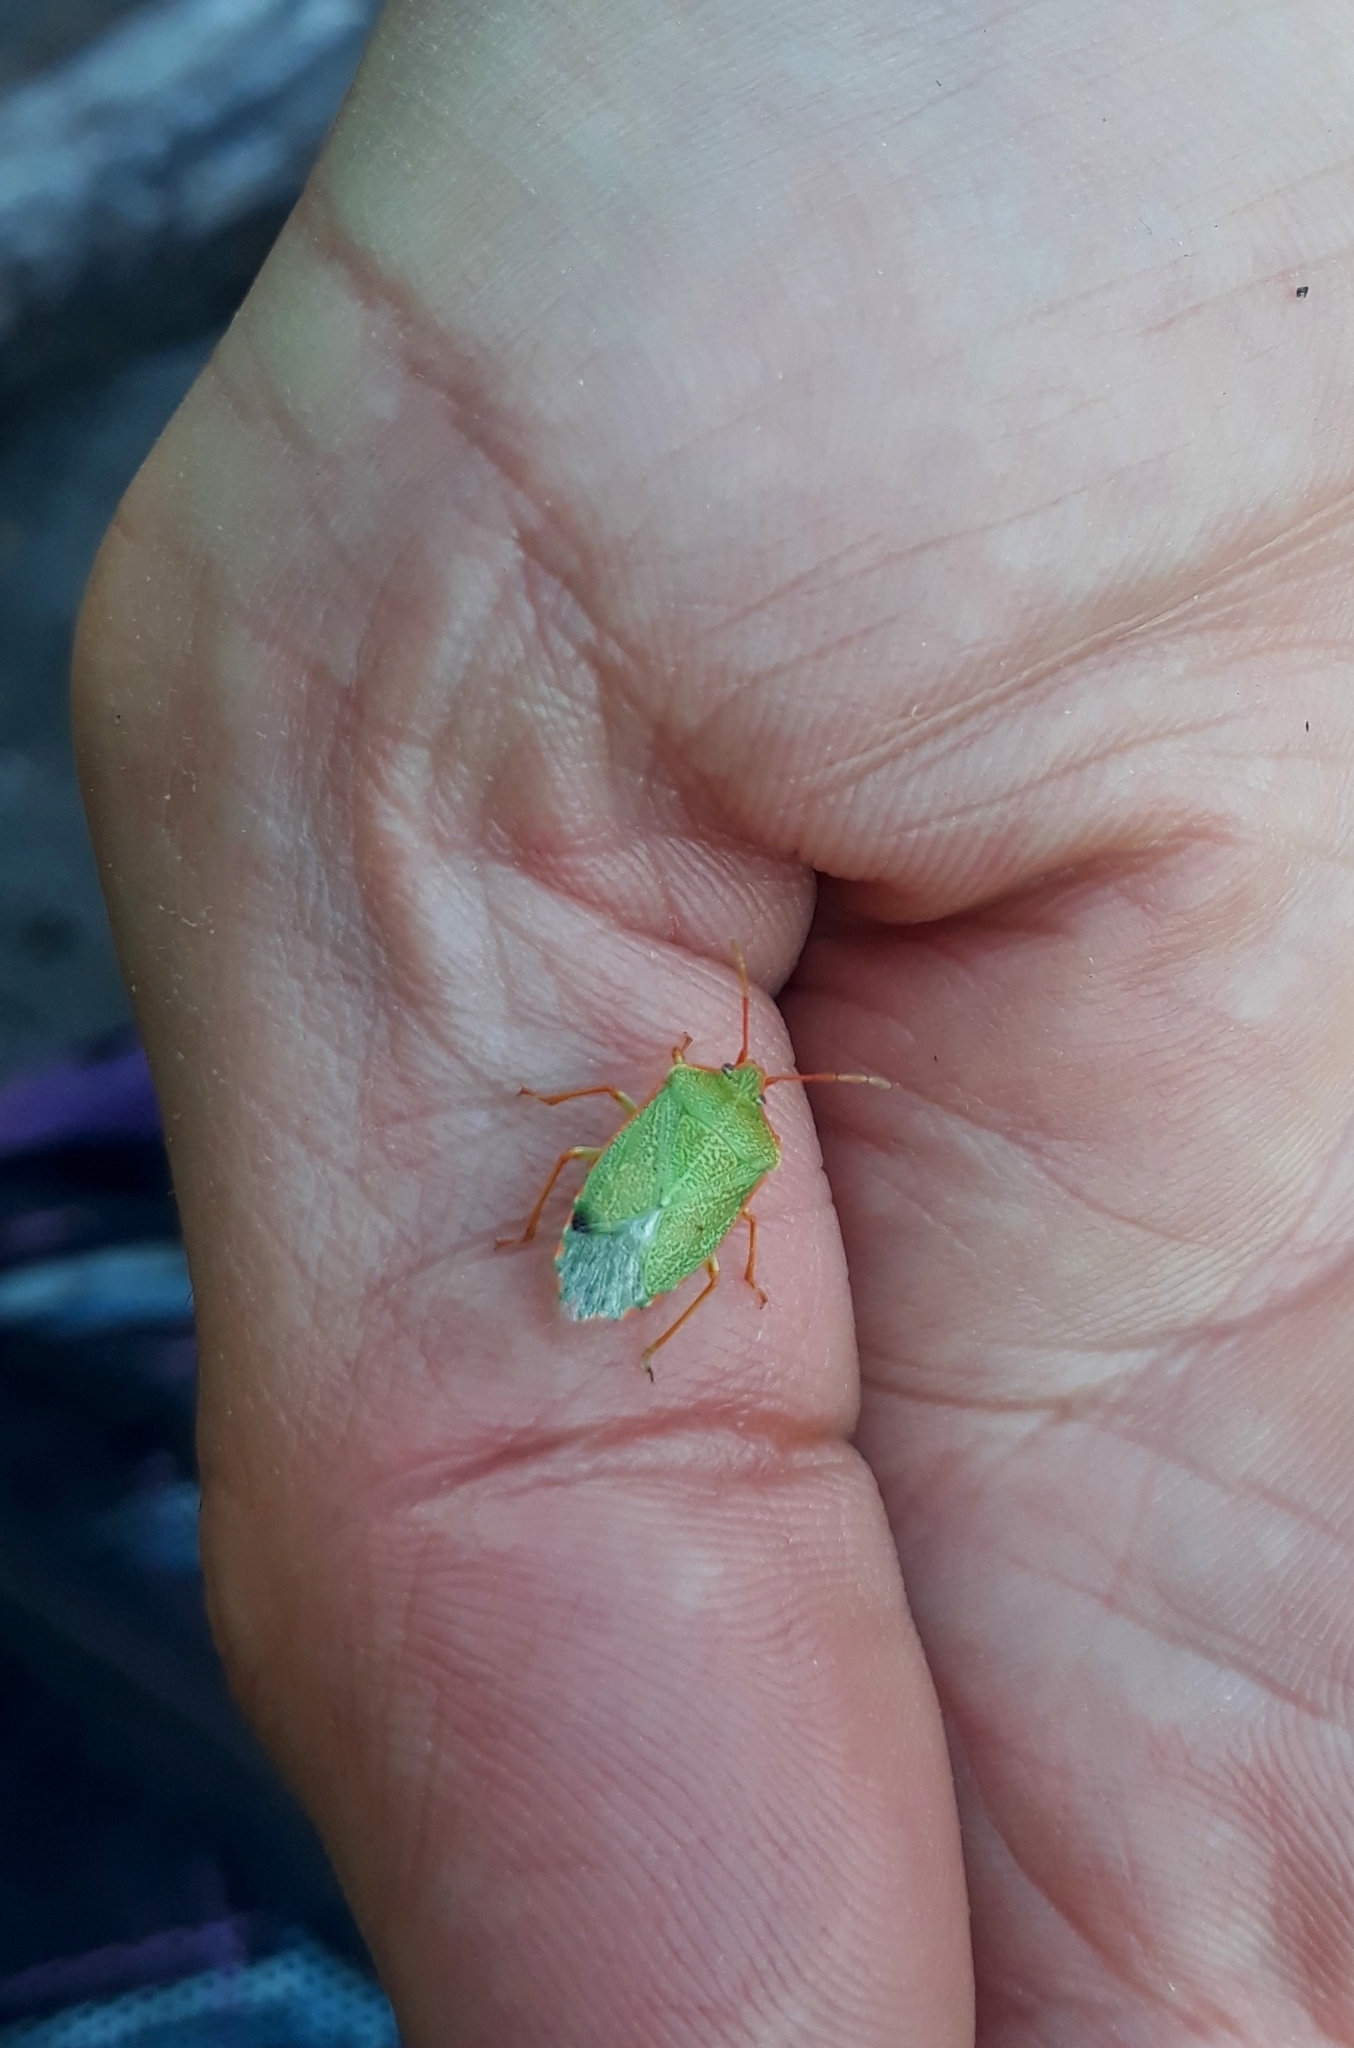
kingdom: Animalia
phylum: Arthropoda
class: Insecta
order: Hemiptera
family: Acanthosomatidae
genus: Sinopla
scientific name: Sinopla perpunctatus
